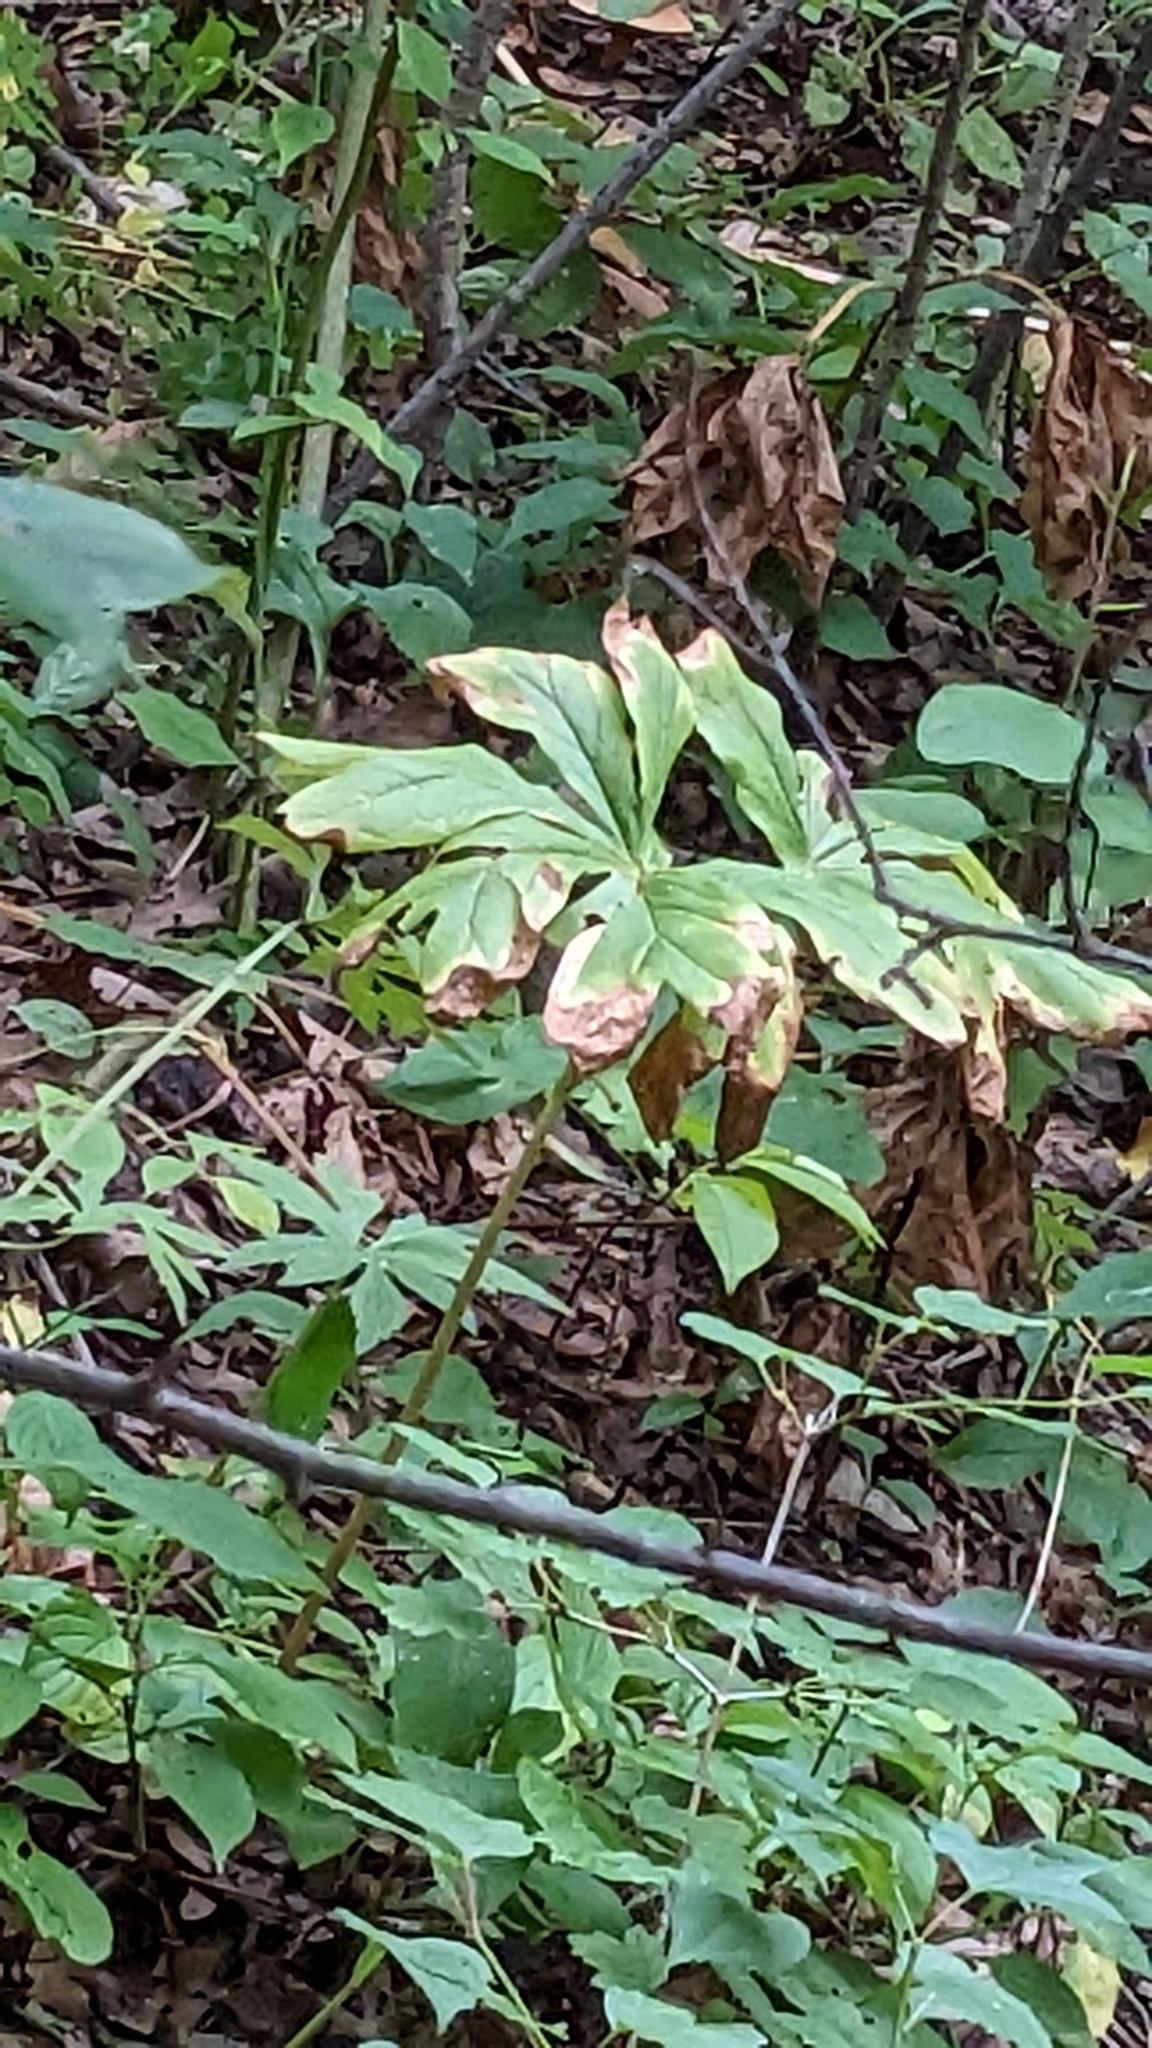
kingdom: Plantae
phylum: Tracheophyta
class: Magnoliopsida
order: Ranunculales
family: Berberidaceae
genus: Podophyllum
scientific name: Podophyllum peltatum
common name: Wild mandrake
